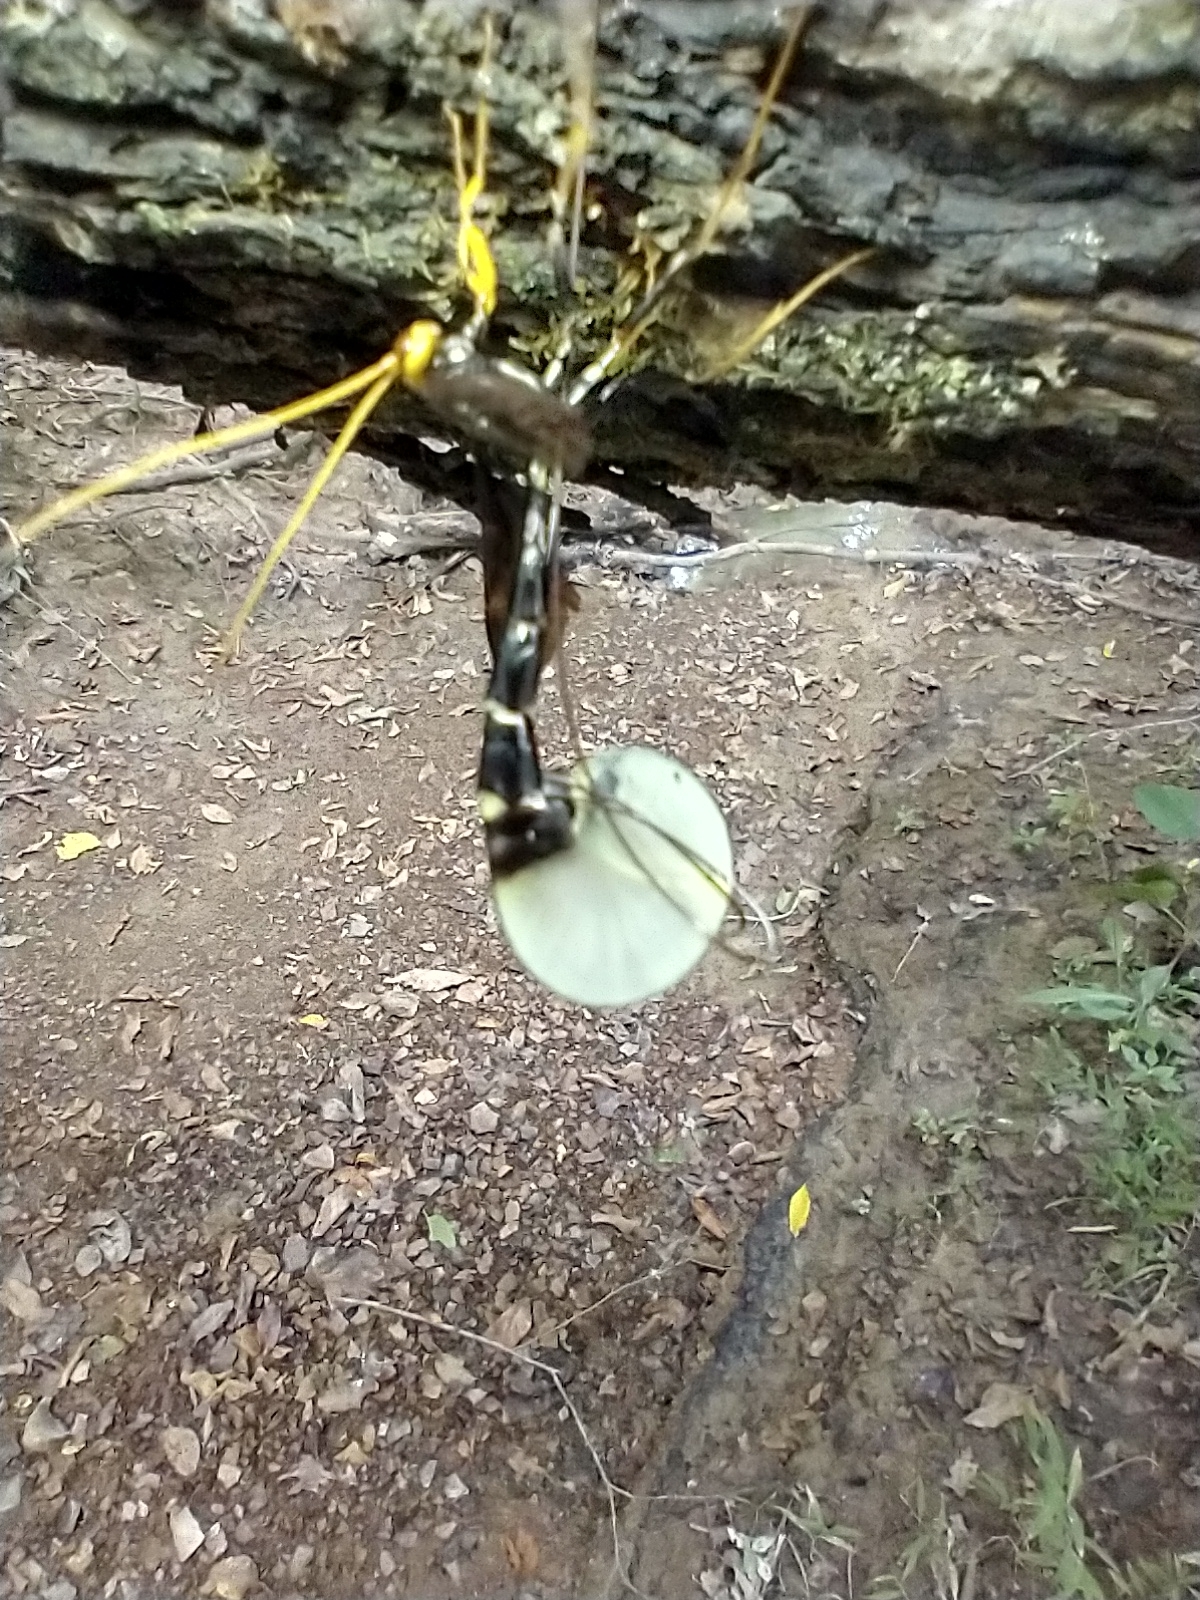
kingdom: Animalia
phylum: Arthropoda
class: Insecta
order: Hymenoptera
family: Ichneumonidae
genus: Megarhyssa
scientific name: Megarhyssa atrata
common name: Black giant ichneumonid wasp
